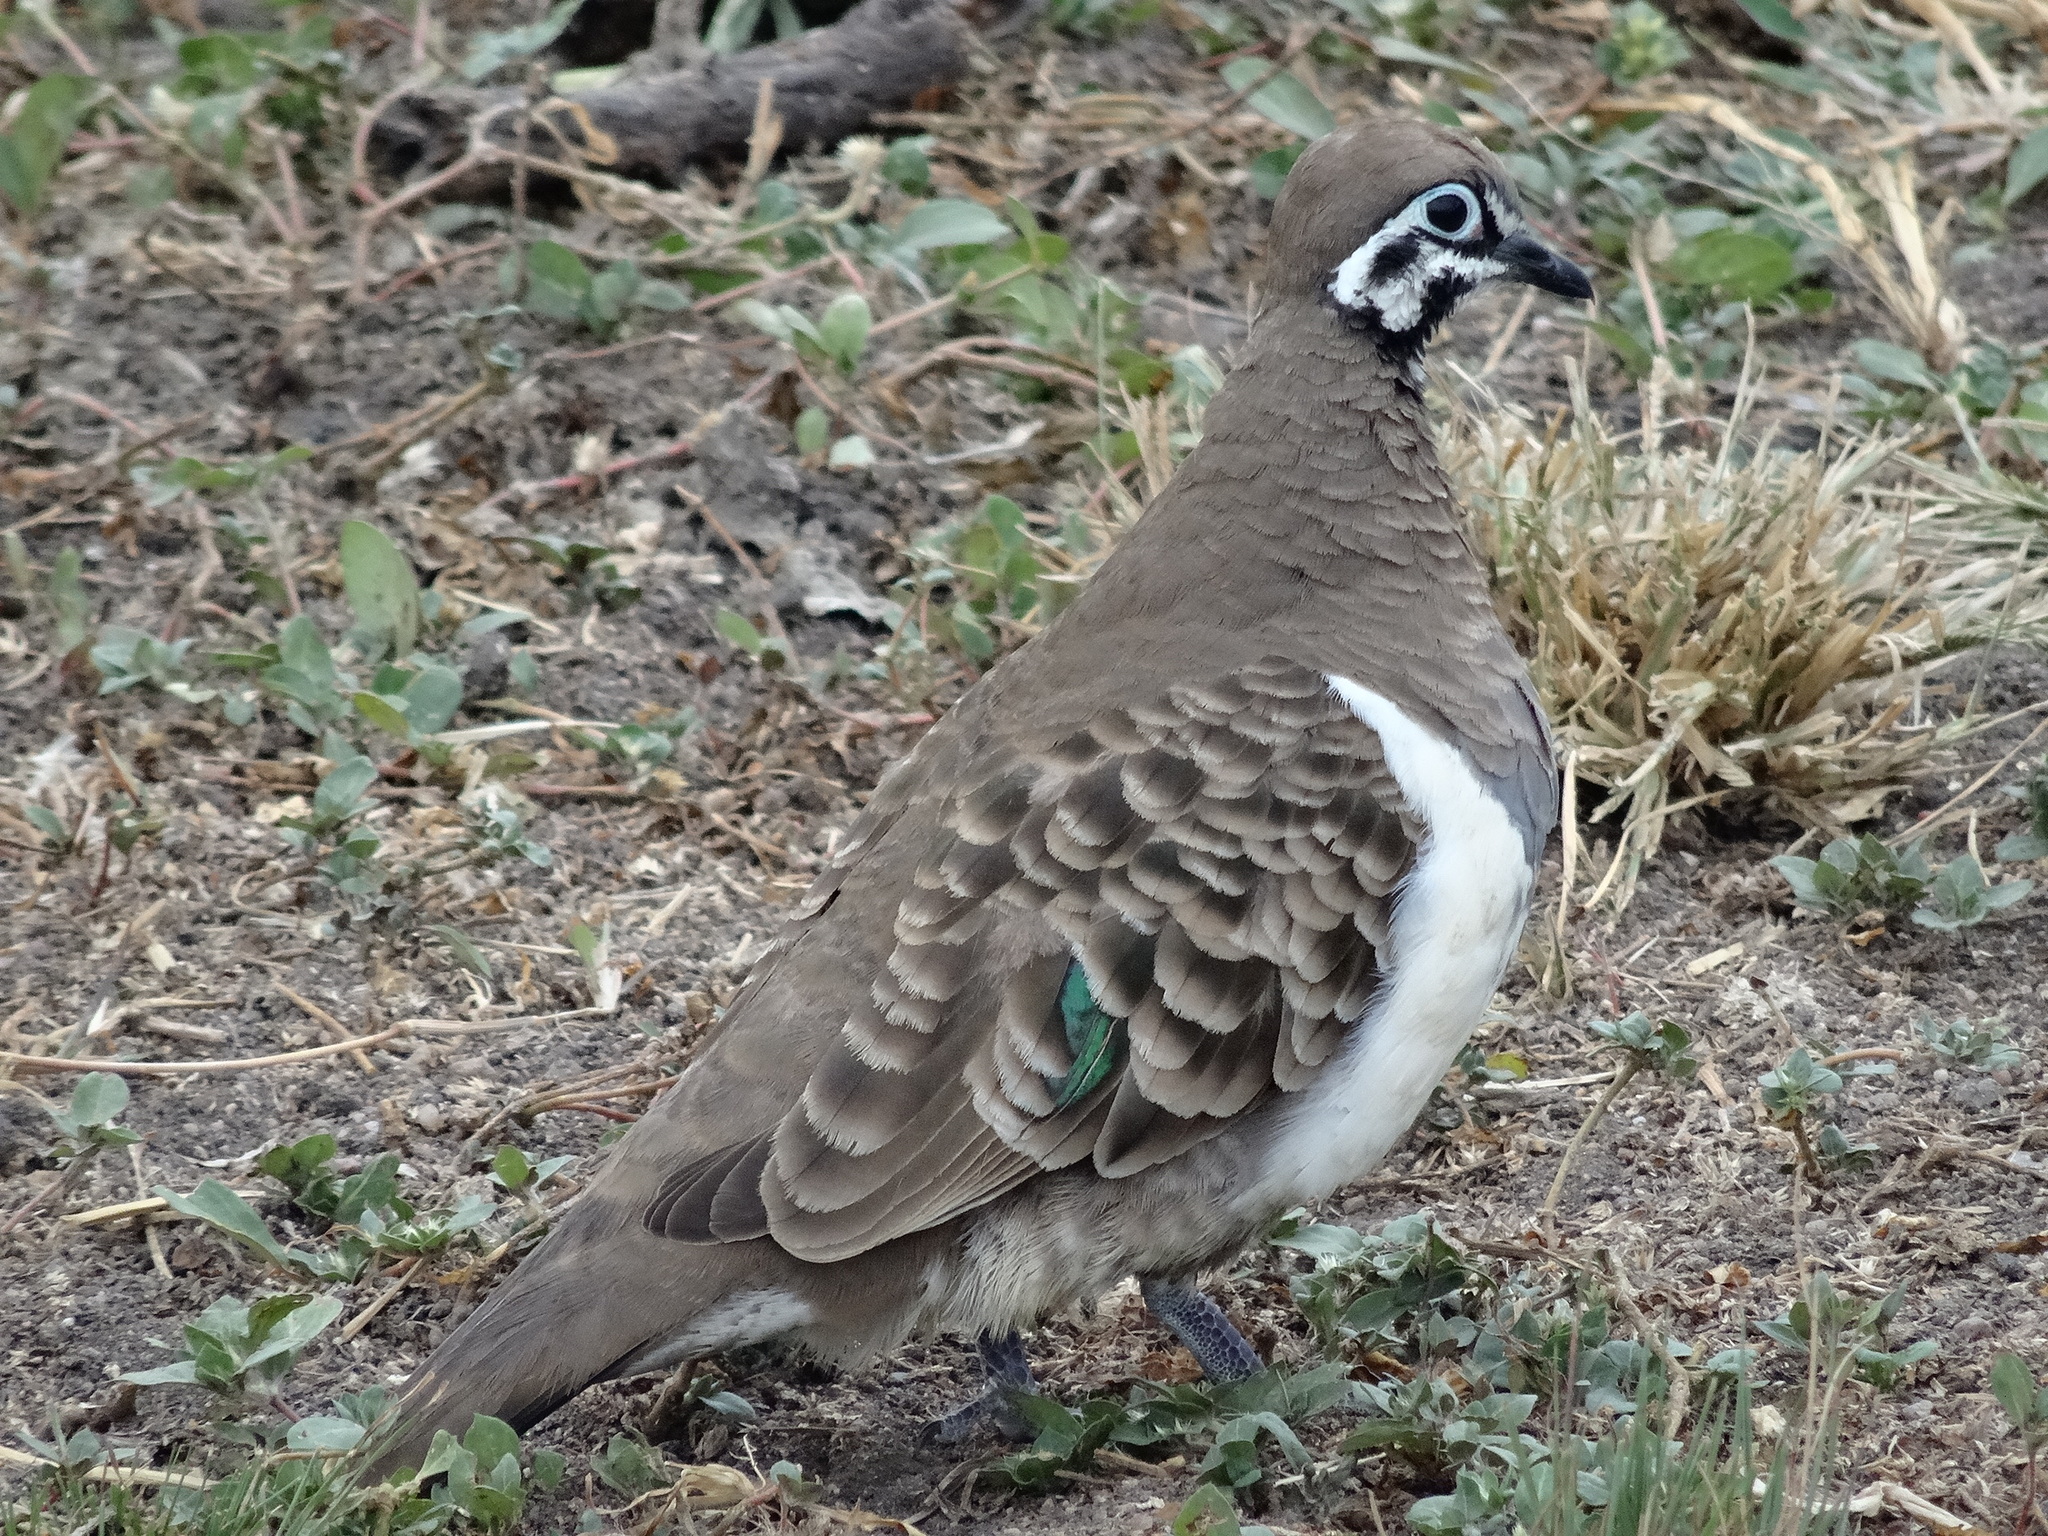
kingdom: Animalia
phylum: Chordata
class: Aves
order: Columbiformes
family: Columbidae
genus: Geophaps
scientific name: Geophaps scripta
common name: Squatter pigeon
